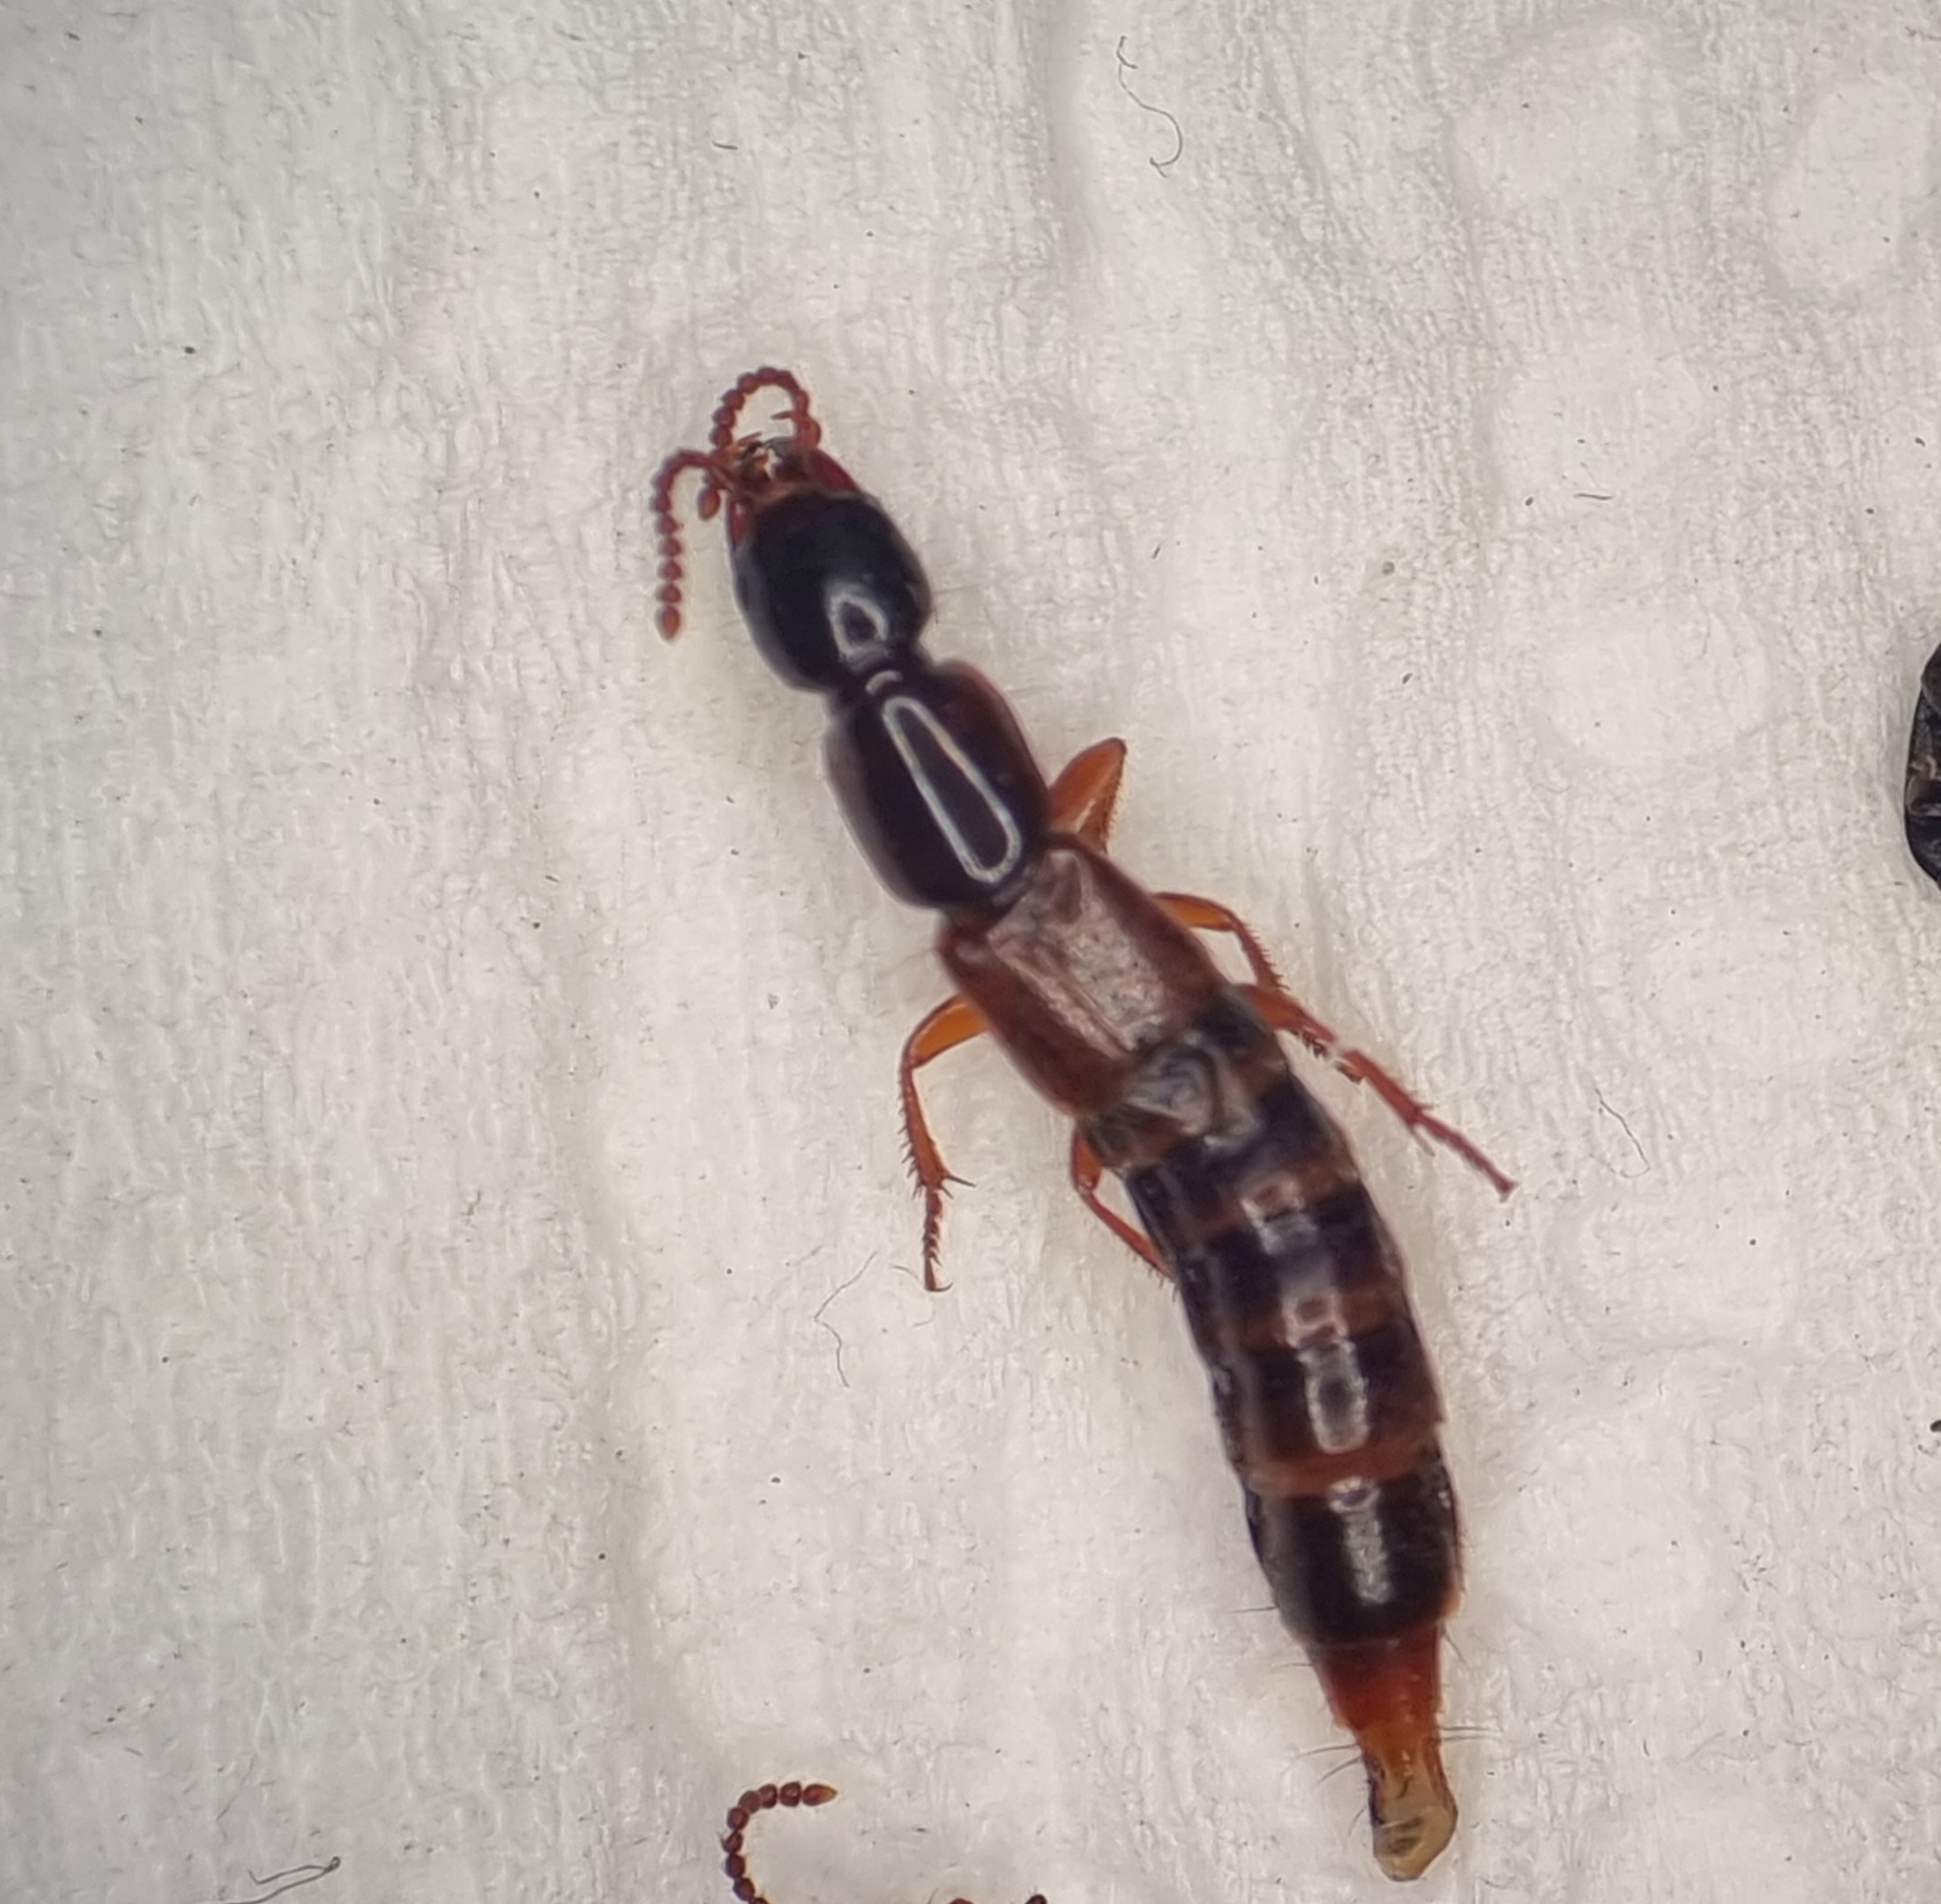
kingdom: Animalia
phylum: Arthropoda
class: Insecta
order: Coleoptera
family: Staphylinidae
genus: Othius
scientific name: Othius punctulatus
